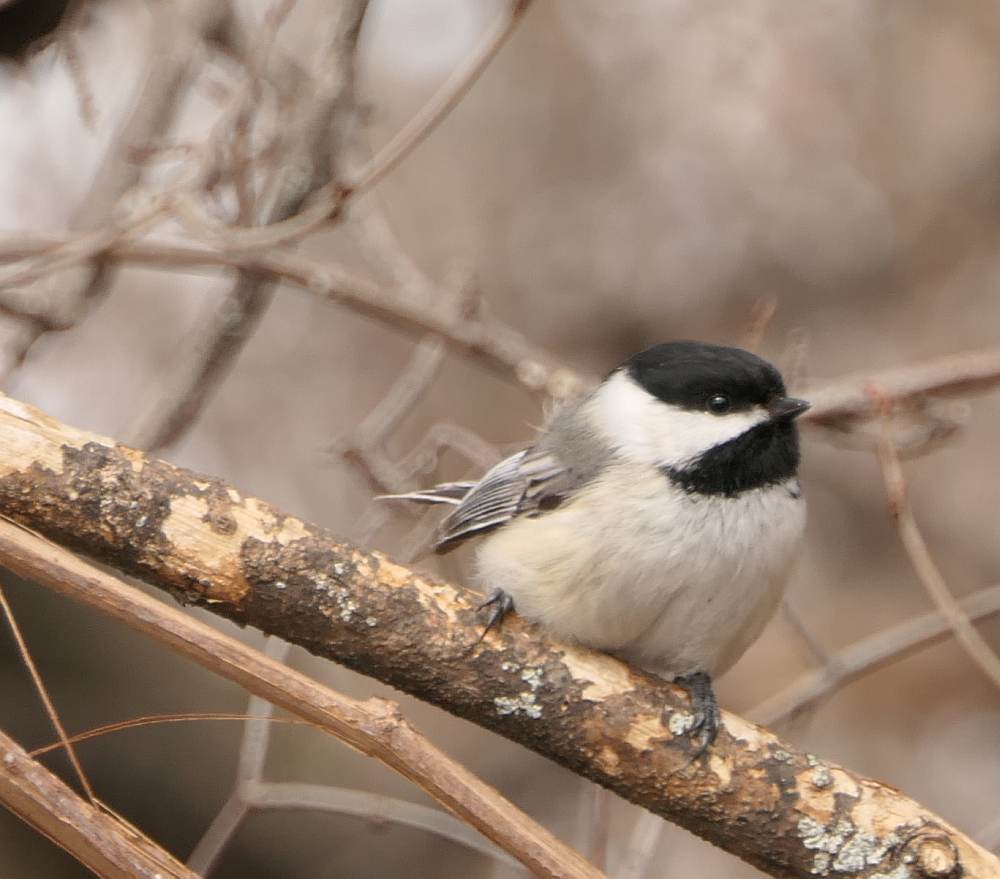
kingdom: Animalia
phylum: Chordata
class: Aves
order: Passeriformes
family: Paridae
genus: Poecile
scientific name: Poecile atricapillus
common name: Black-capped chickadee
